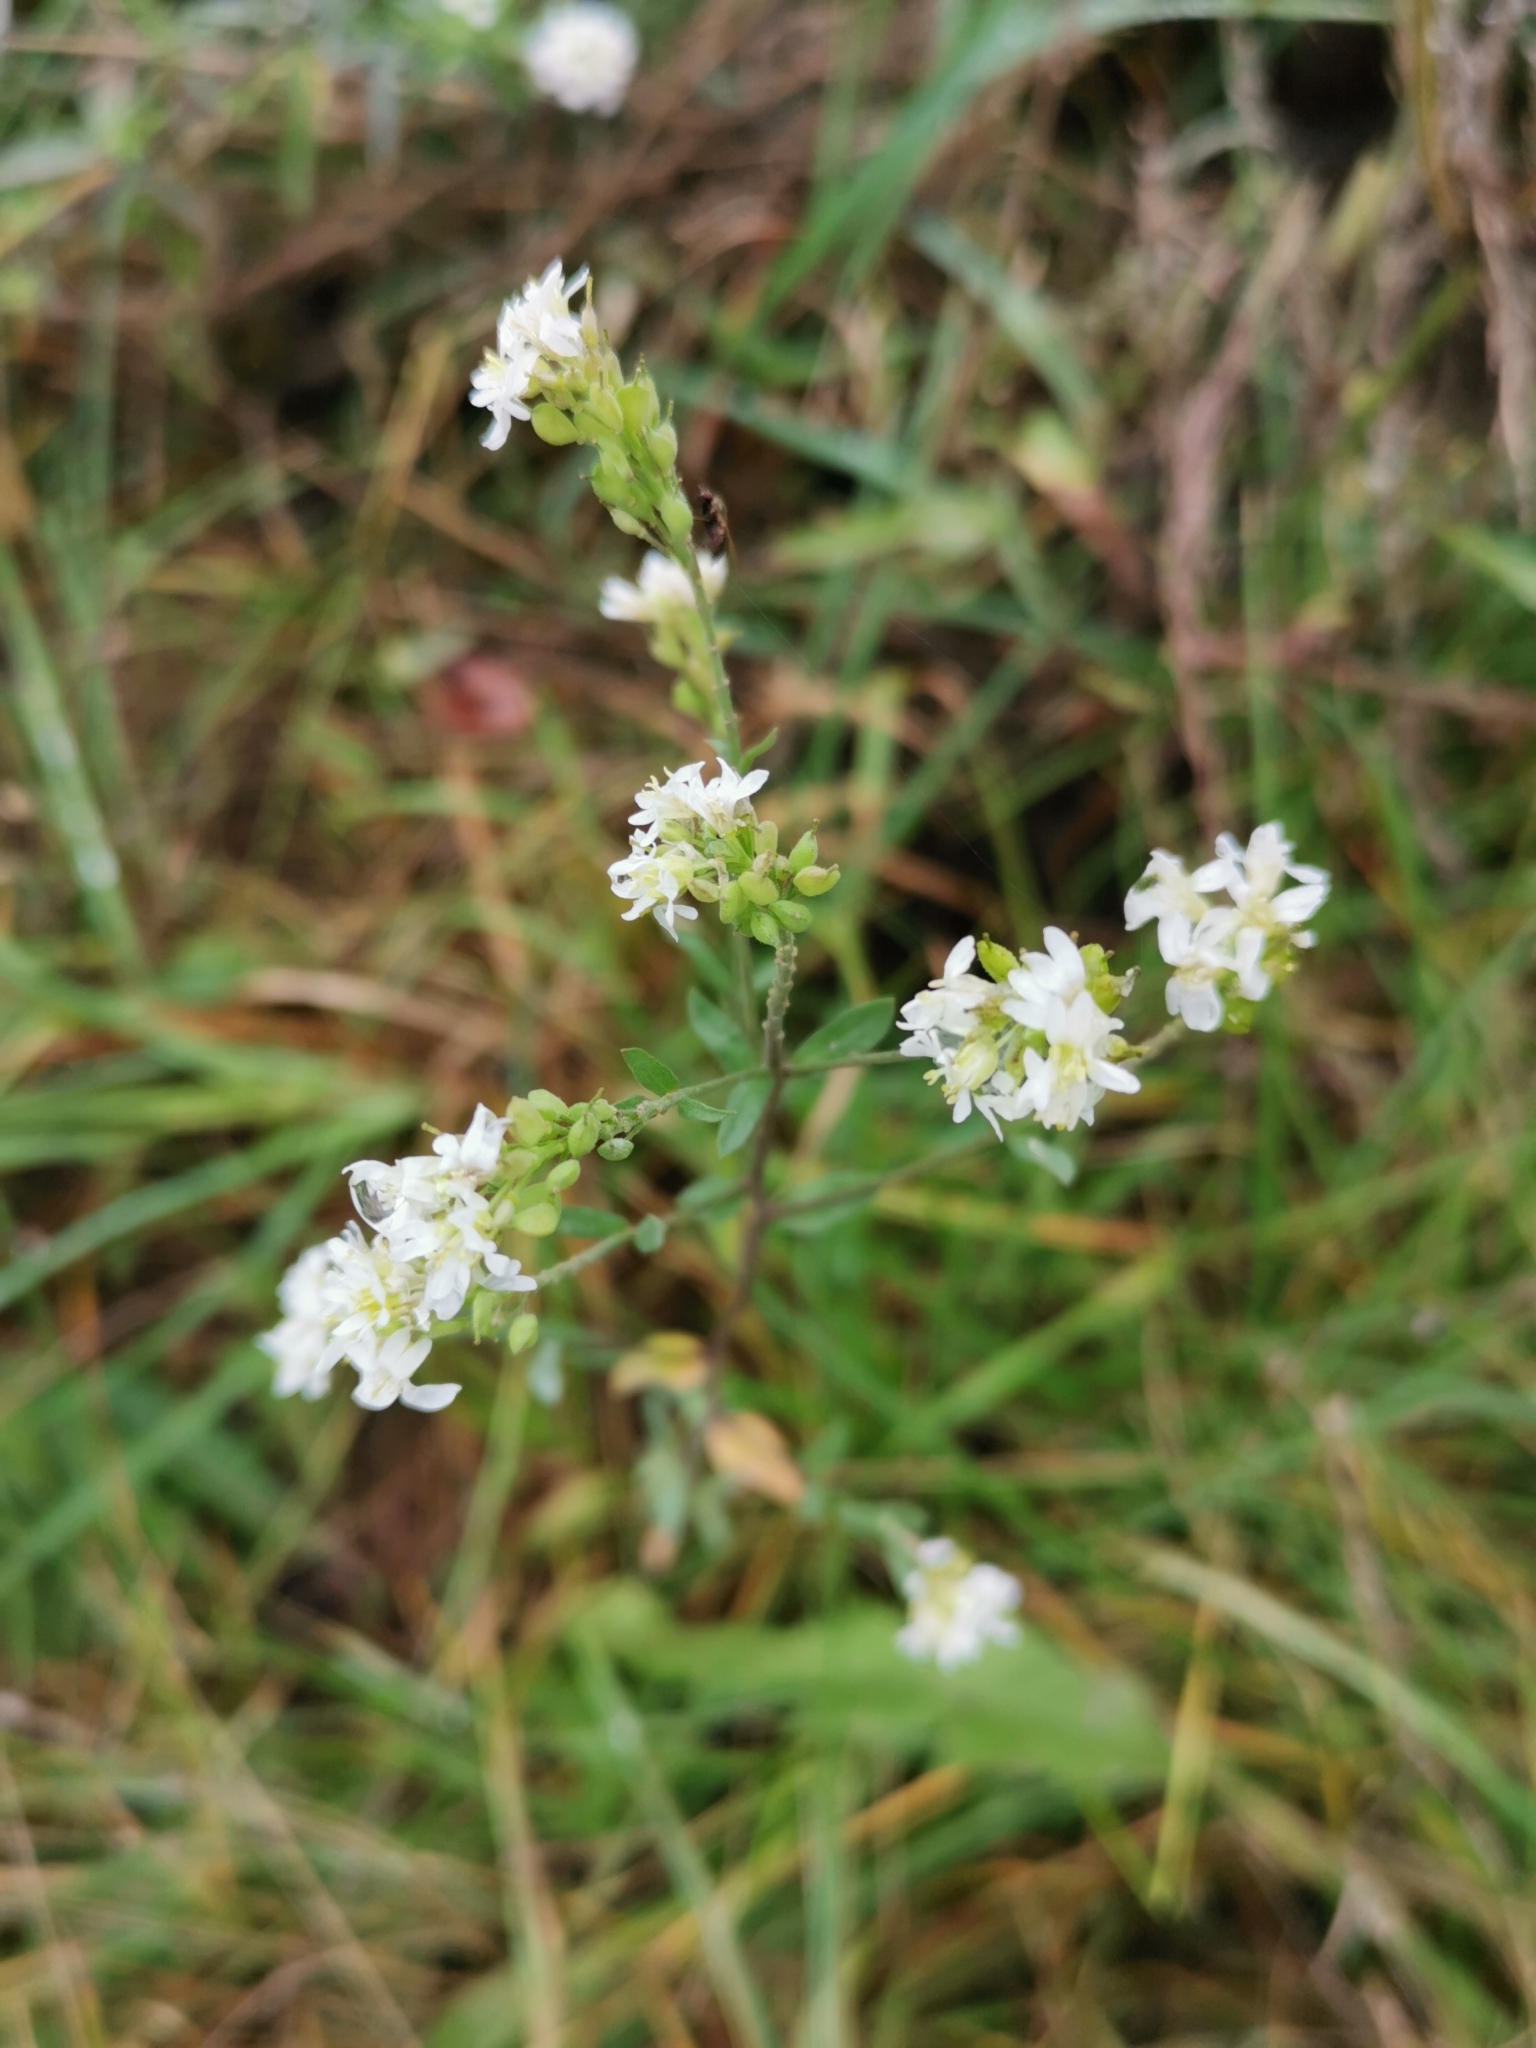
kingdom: Plantae
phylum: Tracheophyta
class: Magnoliopsida
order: Brassicales
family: Brassicaceae
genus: Berteroa
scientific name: Berteroa incana
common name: Hoary alison
